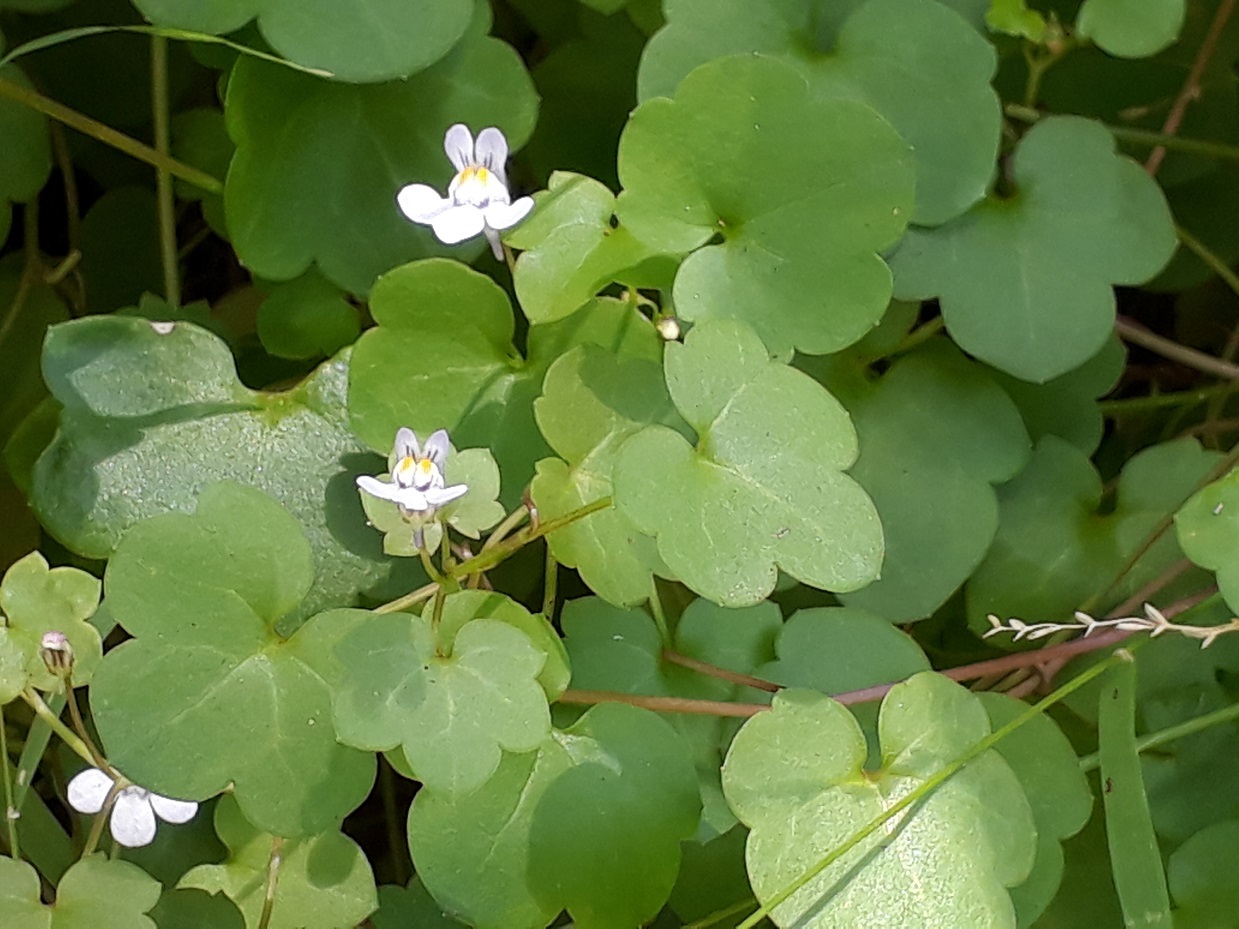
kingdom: Plantae
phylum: Tracheophyta
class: Magnoliopsida
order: Lamiales
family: Plantaginaceae
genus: Cymbalaria
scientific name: Cymbalaria muralis
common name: Ivy-leaved toadflax
